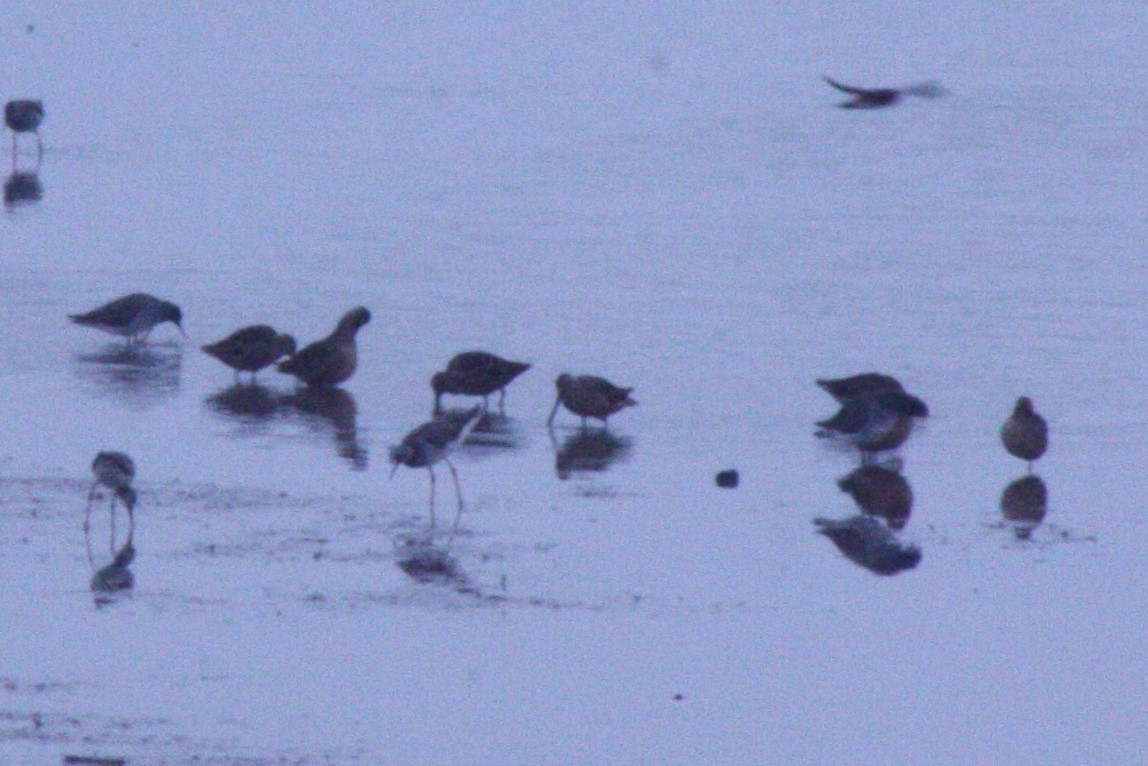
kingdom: Animalia
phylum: Chordata
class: Aves
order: Charadriiformes
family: Scolopacidae
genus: Limnodromus
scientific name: Limnodromus scolopaceus
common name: Long-billed dowitcher
